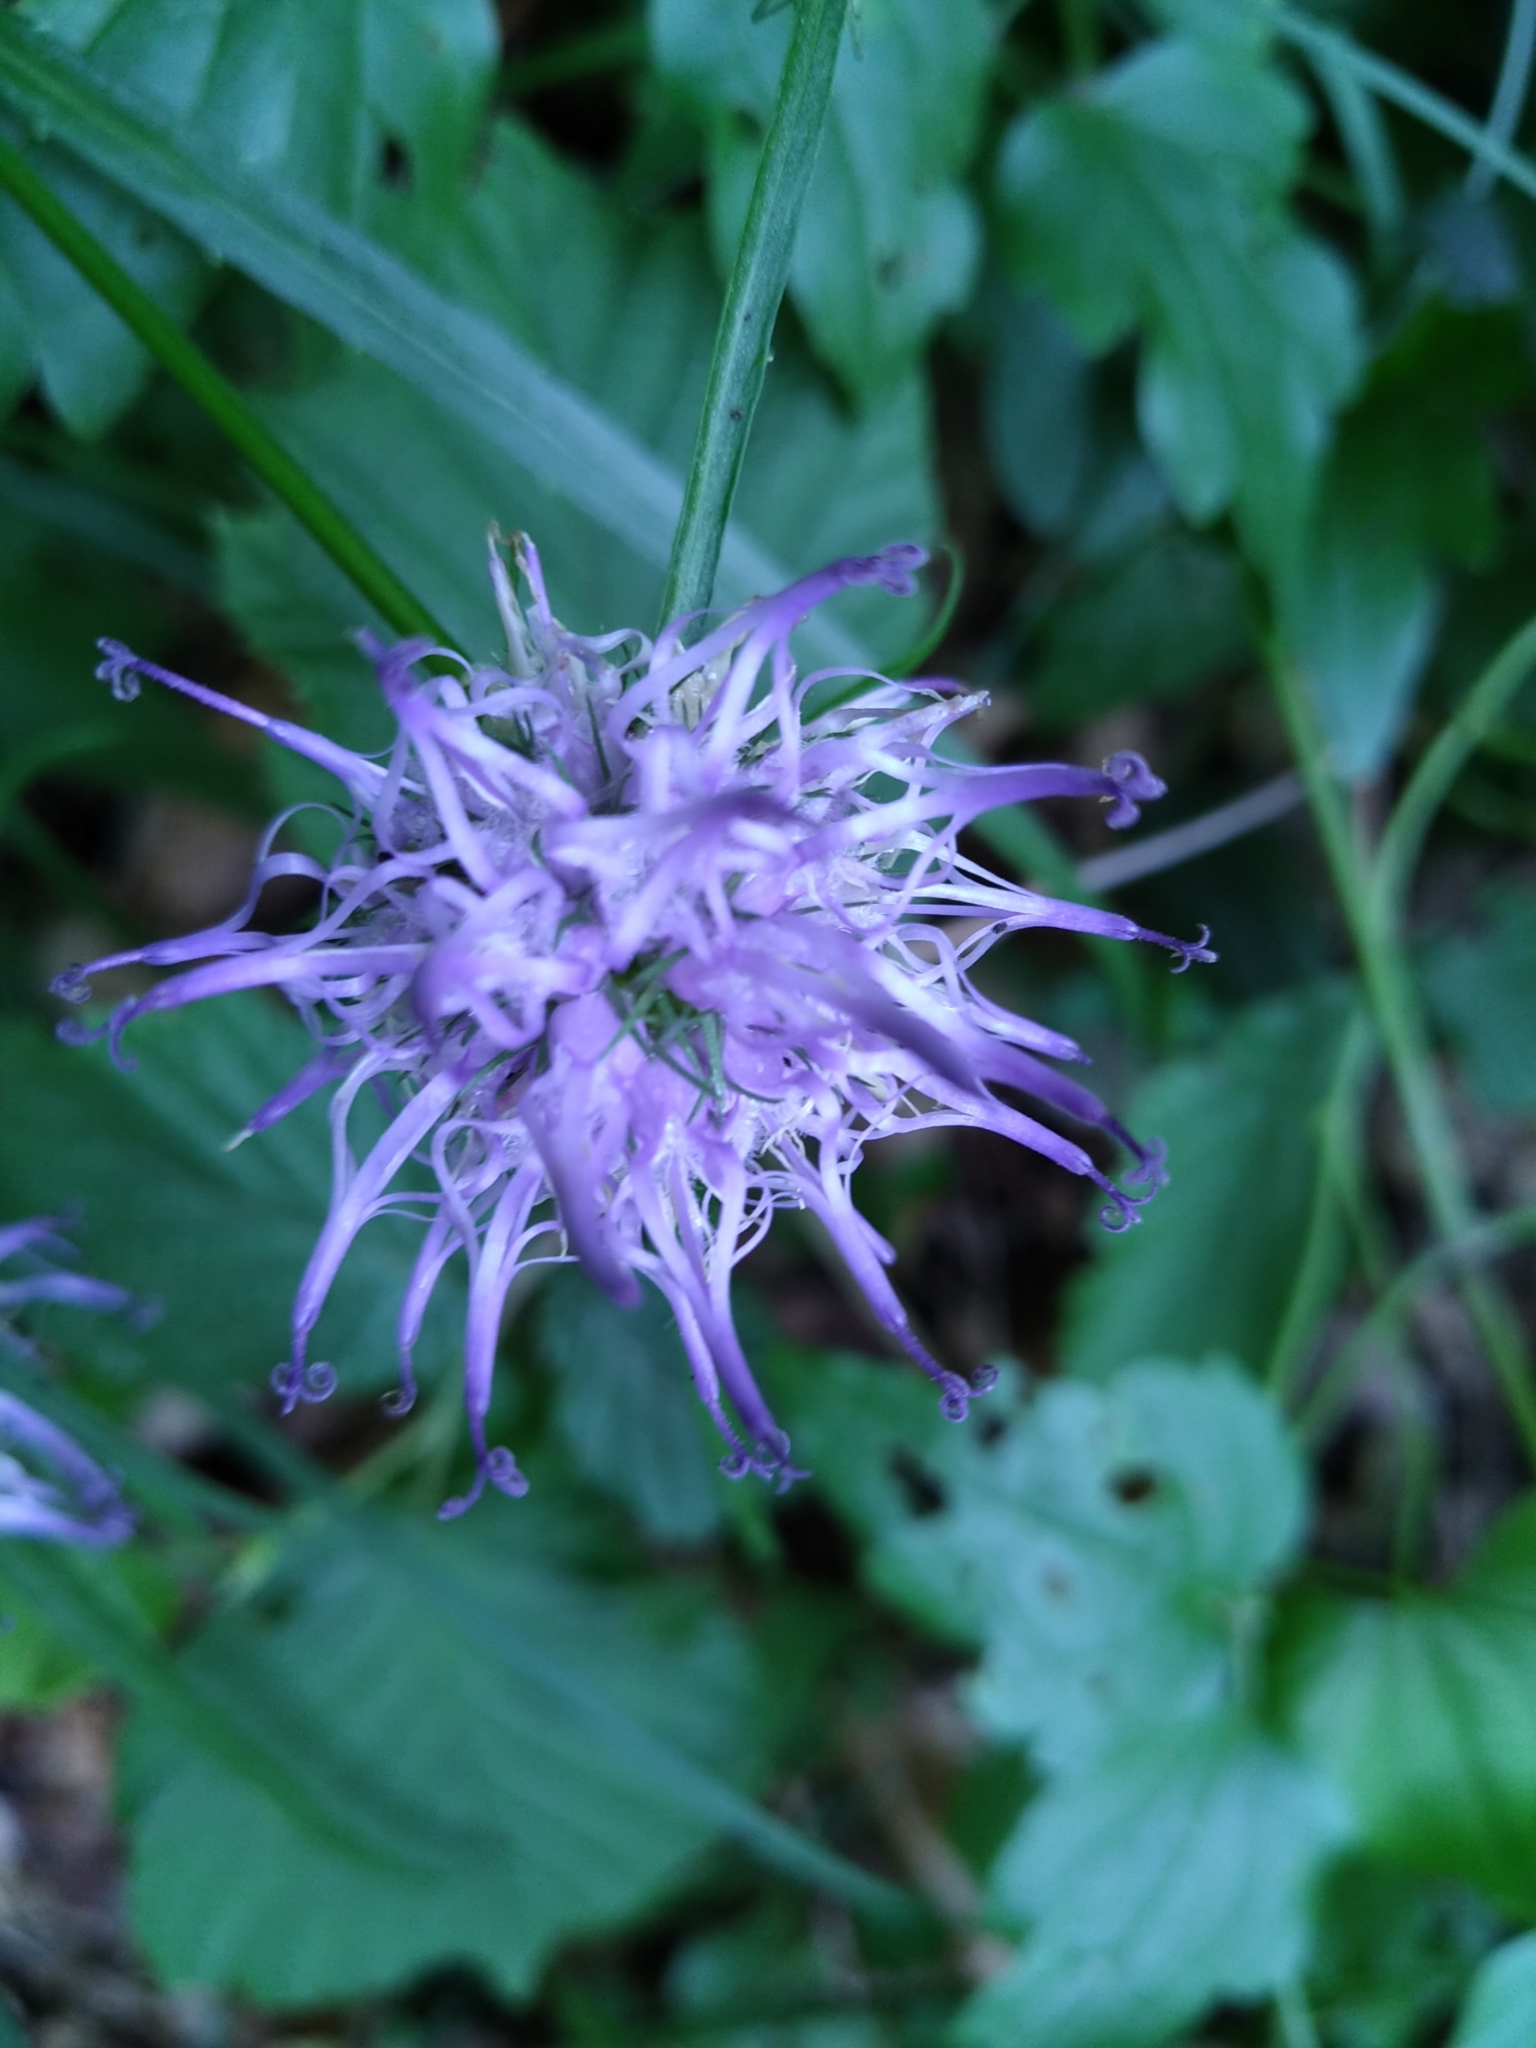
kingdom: Plantae
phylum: Tracheophyta
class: Magnoliopsida
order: Asterales
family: Campanulaceae
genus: Phyteuma
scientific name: Phyteuma scheuchzeri
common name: Oxford rampion
